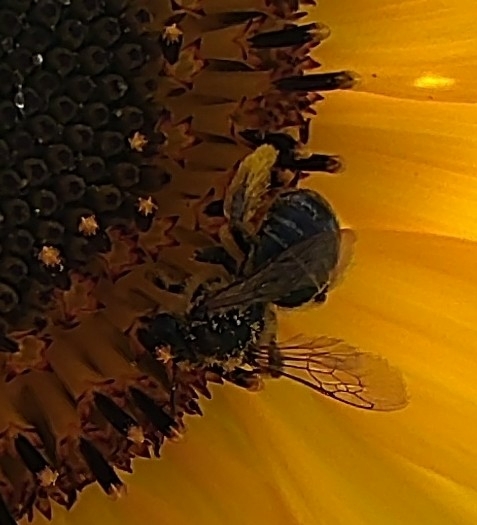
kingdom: Animalia
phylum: Arthropoda
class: Insecta
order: Hymenoptera
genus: Eumelissodes
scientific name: Eumelissodes
